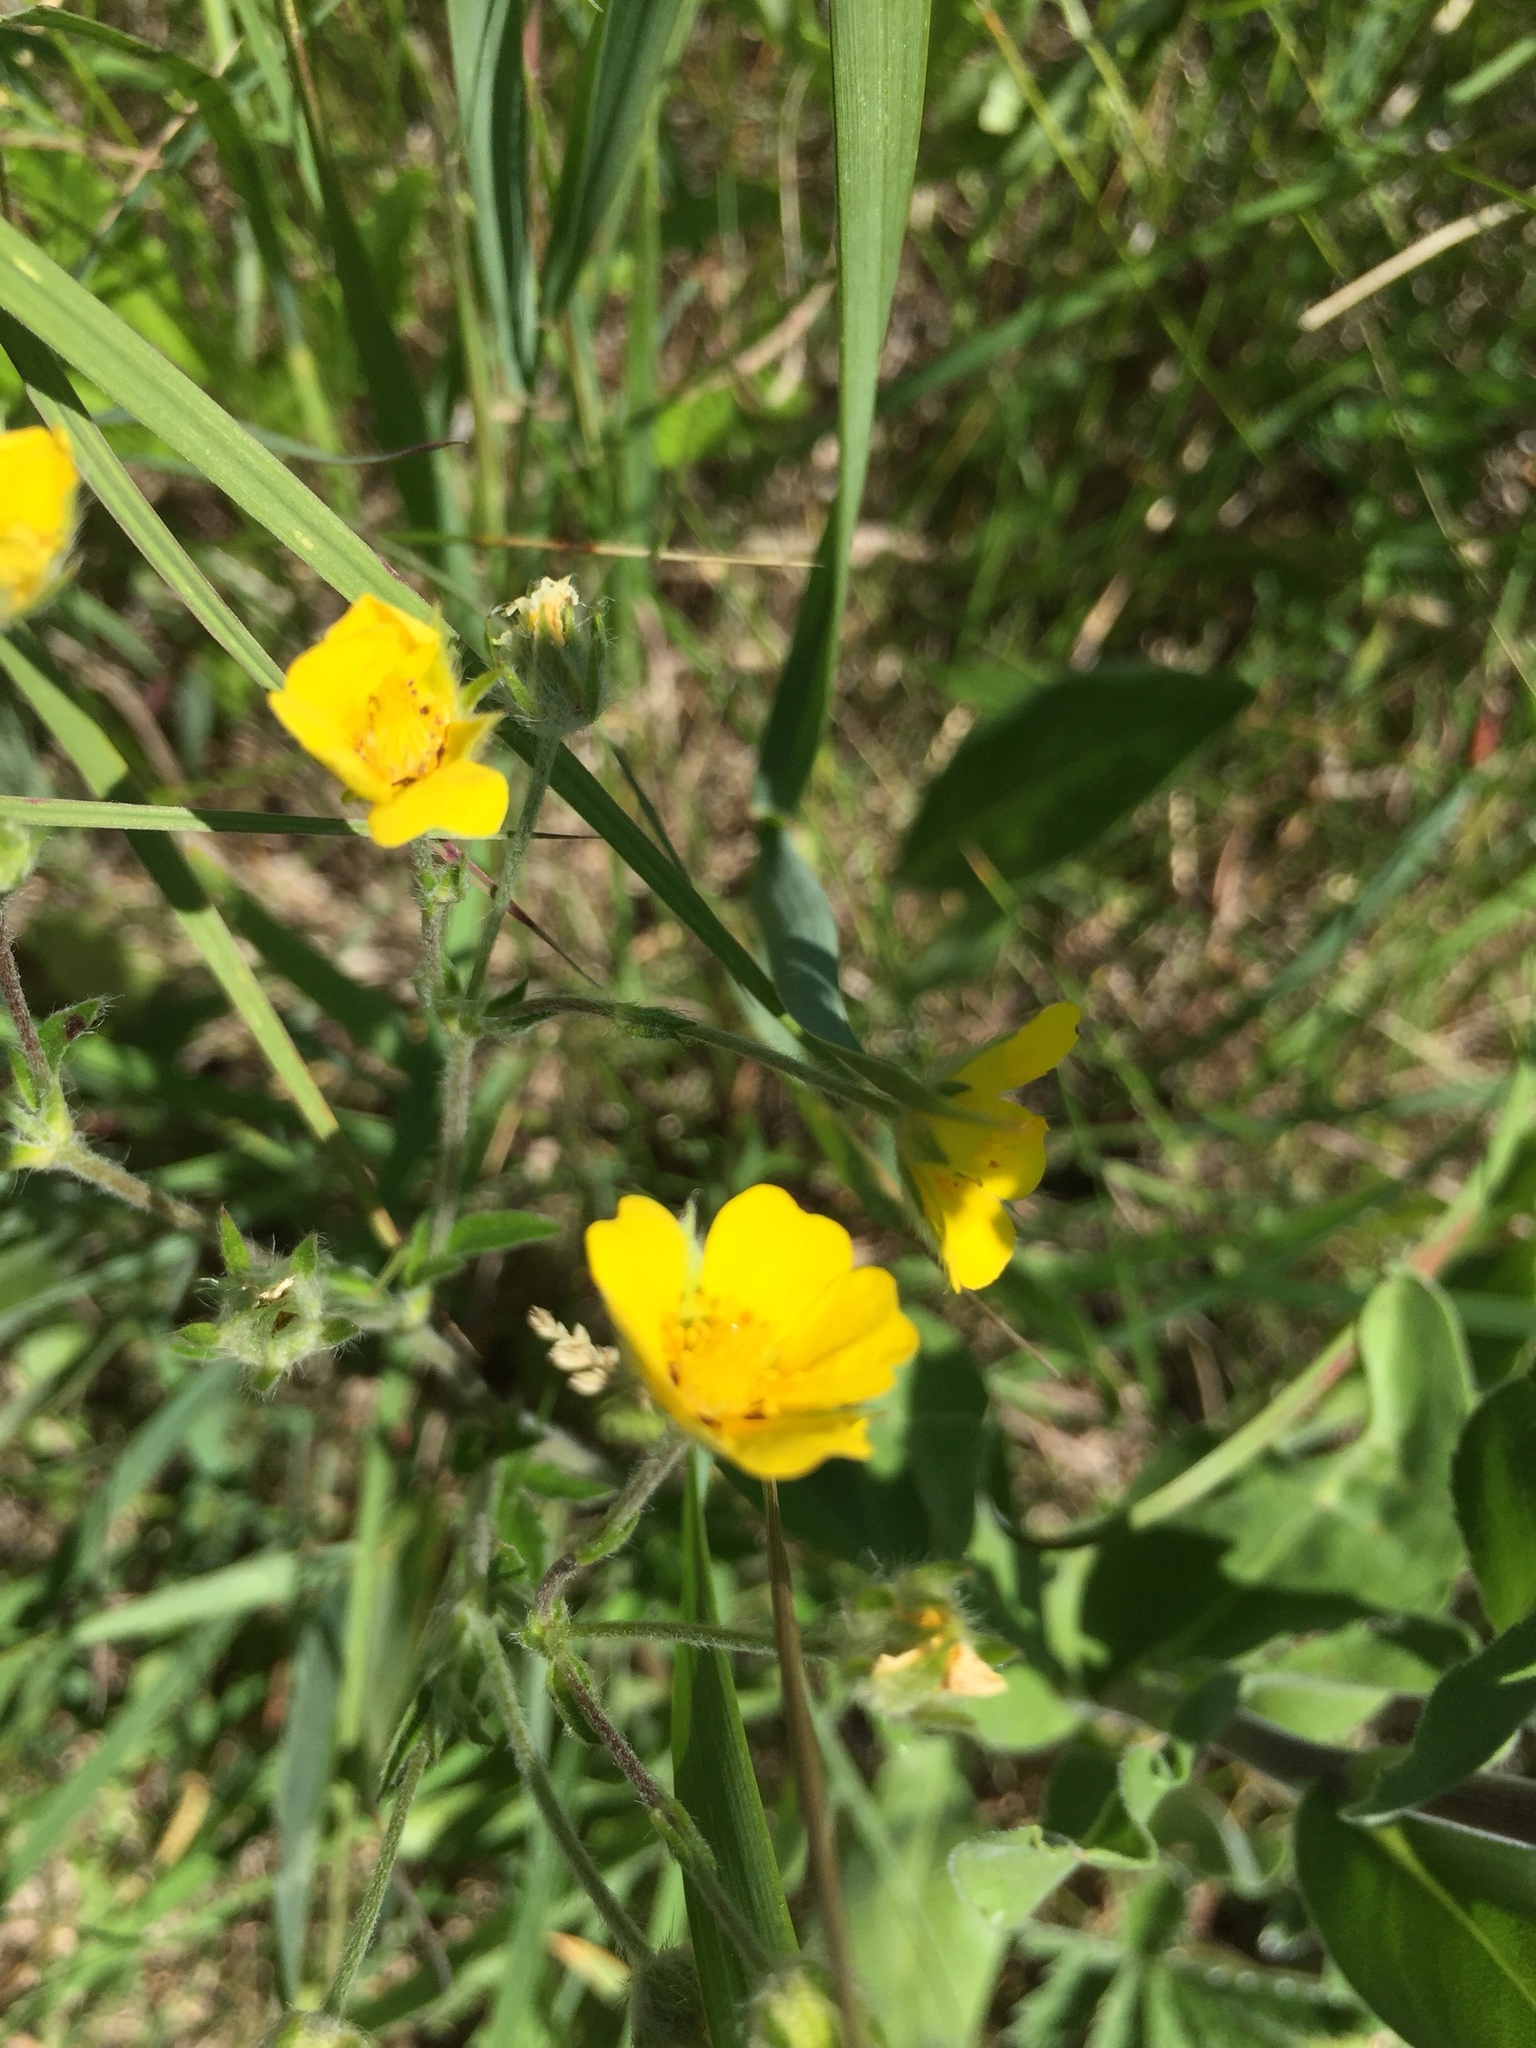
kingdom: Plantae
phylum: Tracheophyta
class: Magnoliopsida
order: Rosales
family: Rosaceae
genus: Potentilla
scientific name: Potentilla gracilis
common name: Graceful cinquefoil
